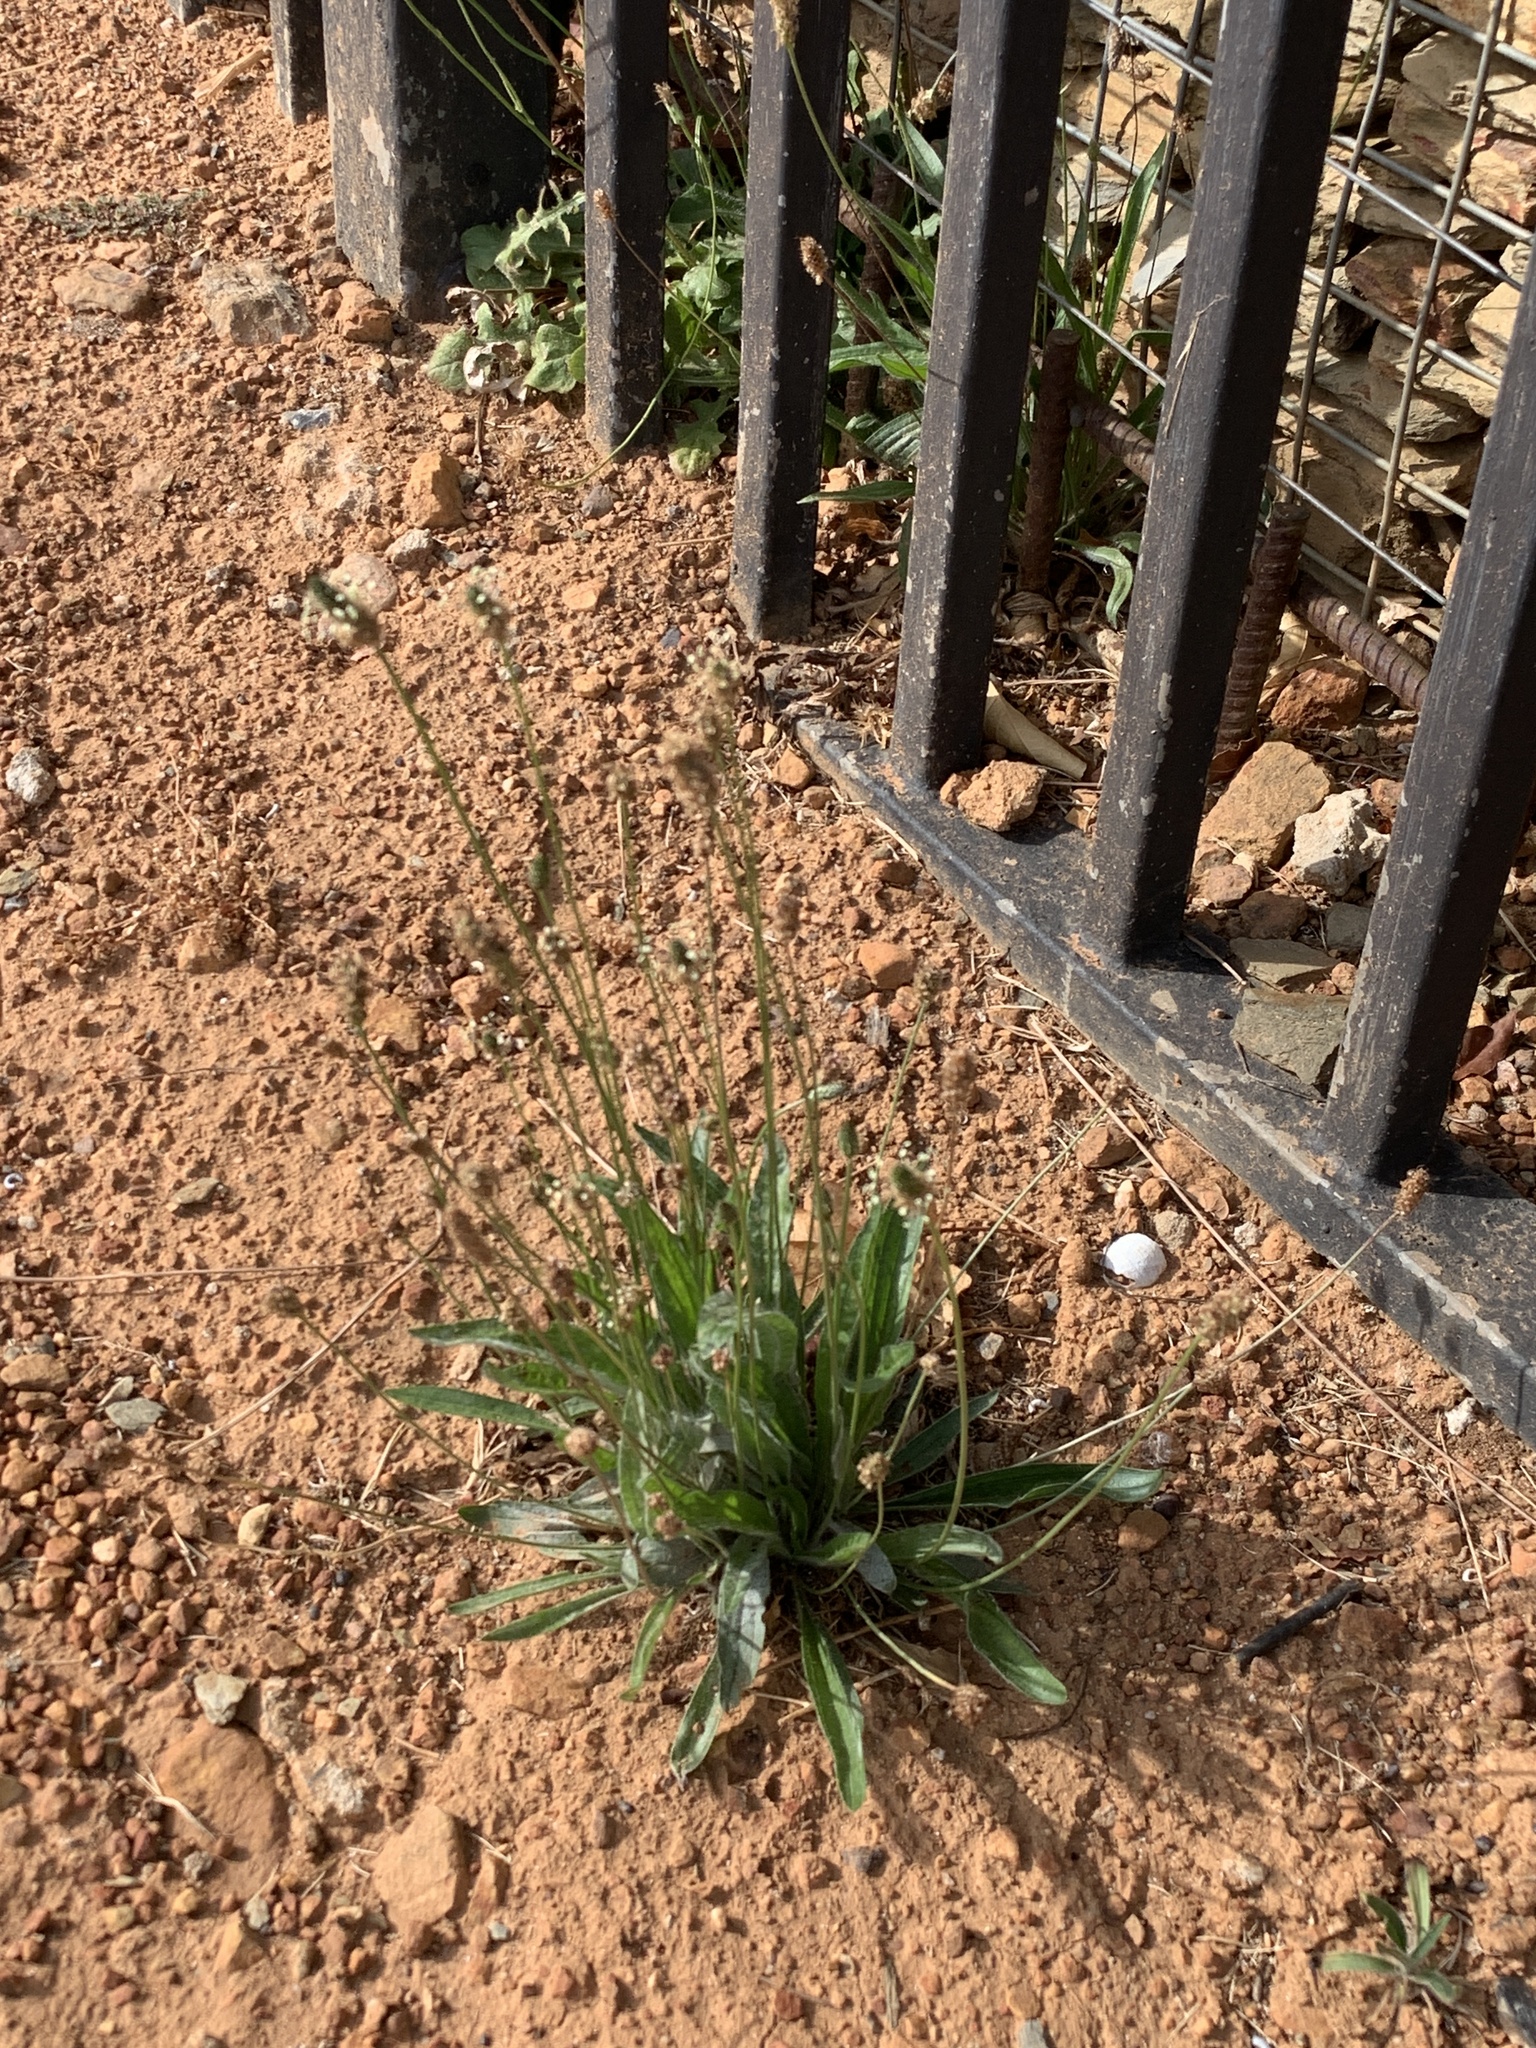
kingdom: Plantae
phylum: Tracheophyta
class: Magnoliopsida
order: Lamiales
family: Plantaginaceae
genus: Plantago
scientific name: Plantago lanceolata
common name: Ribwort plantain
